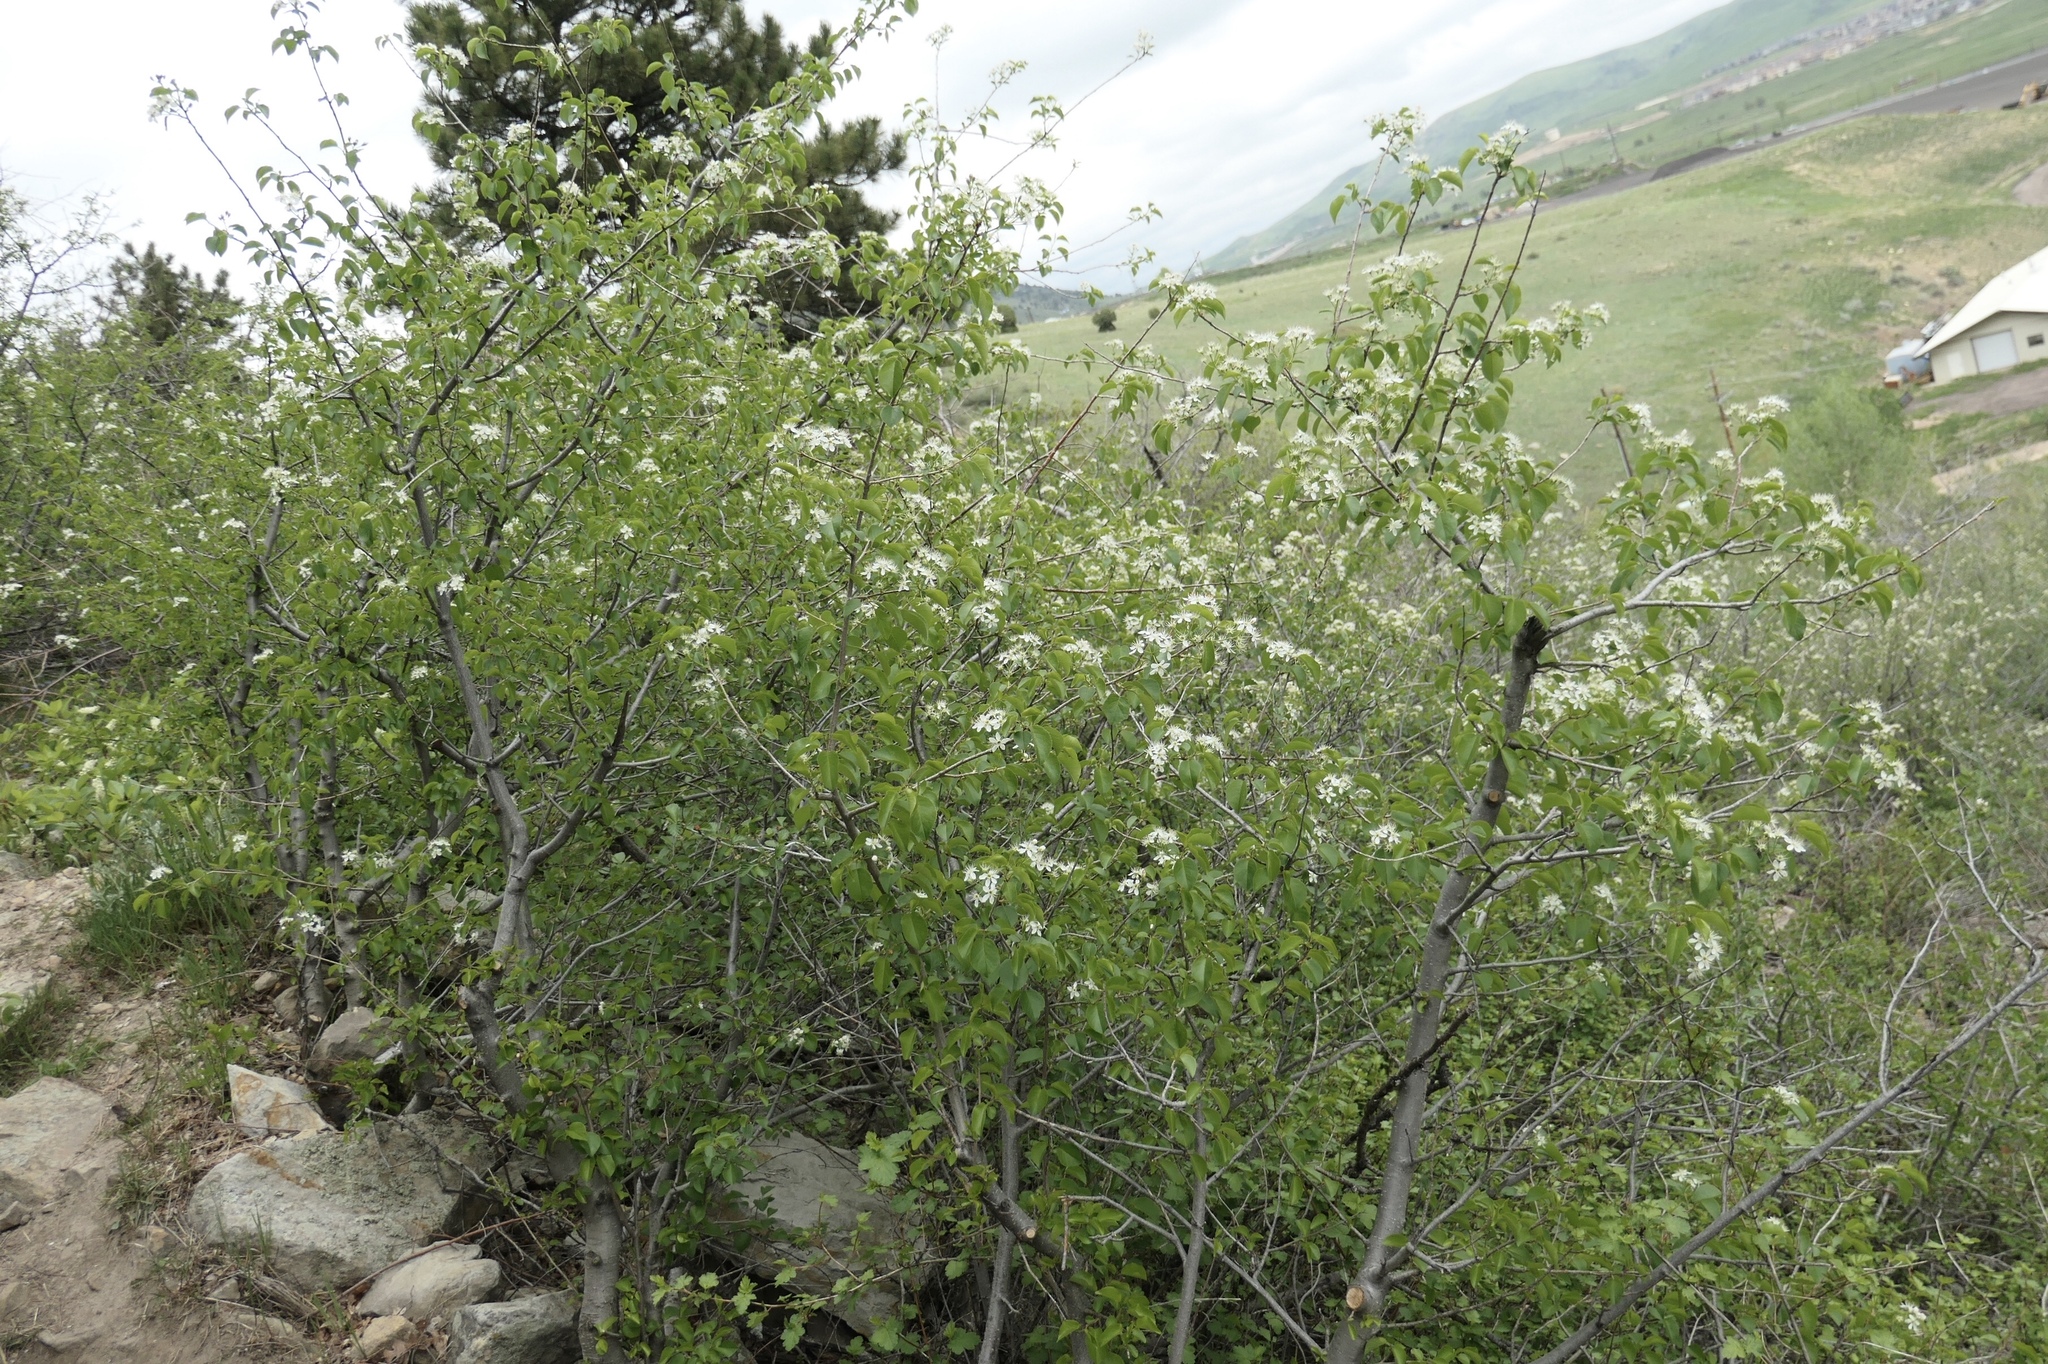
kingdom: Plantae
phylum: Tracheophyta
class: Magnoliopsida
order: Rosales
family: Rosaceae
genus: Amelanchier
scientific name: Amelanchier alnifolia
